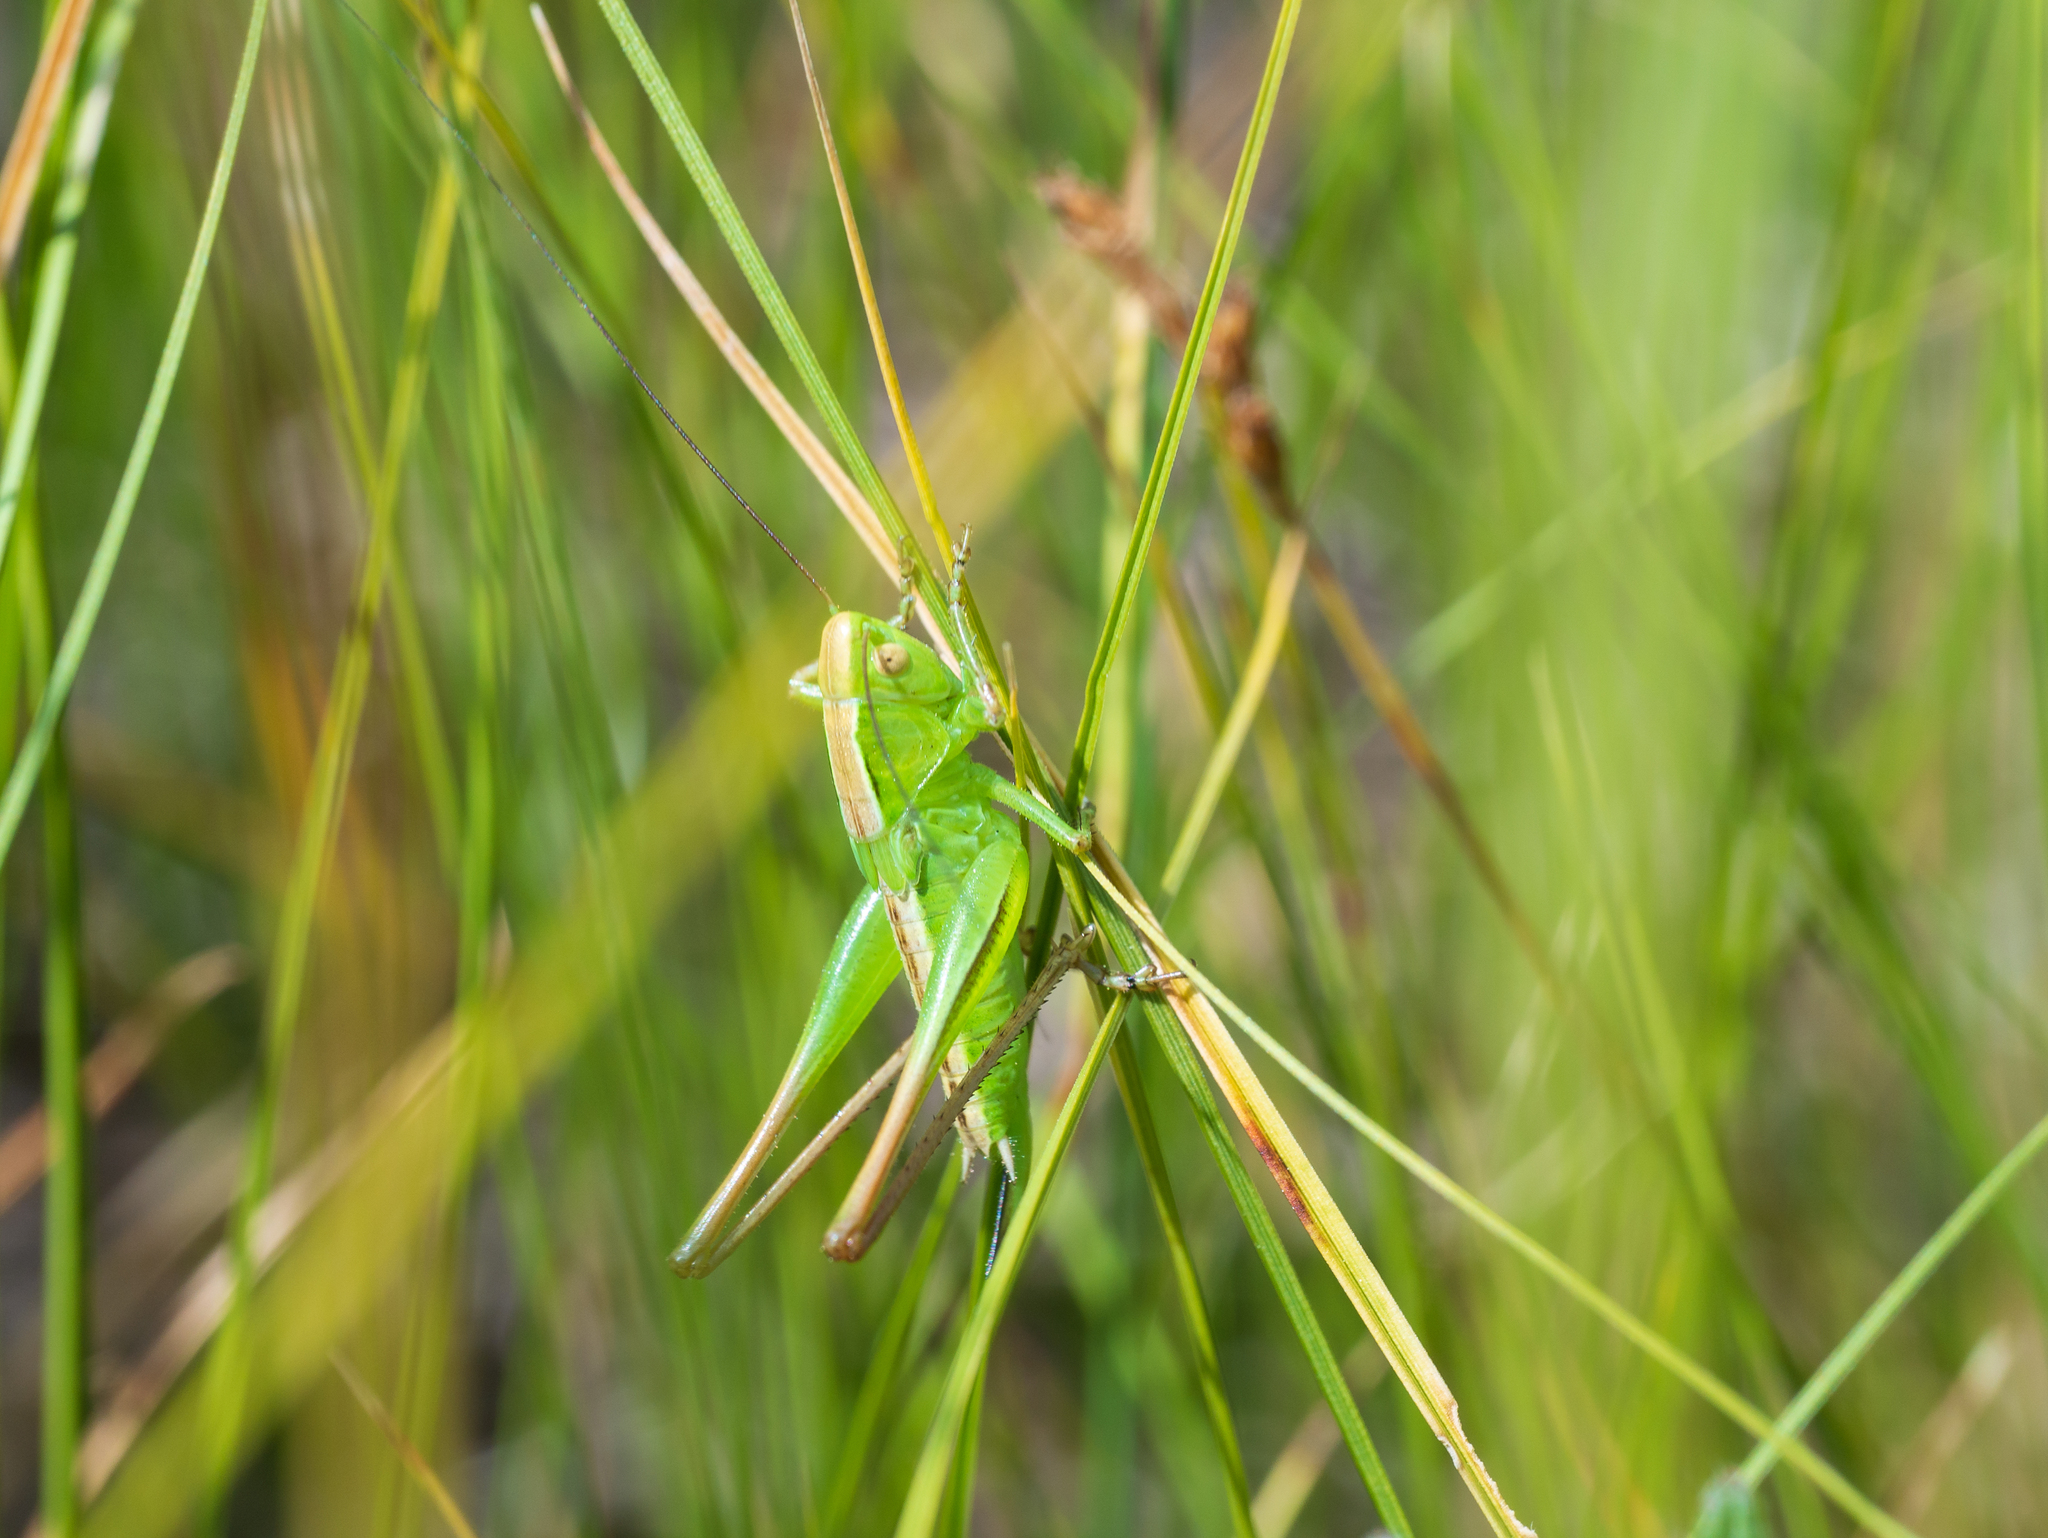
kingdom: Animalia
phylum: Arthropoda
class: Insecta
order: Orthoptera
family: Tettigoniidae
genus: Bicolorana
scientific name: Bicolorana bicolor
